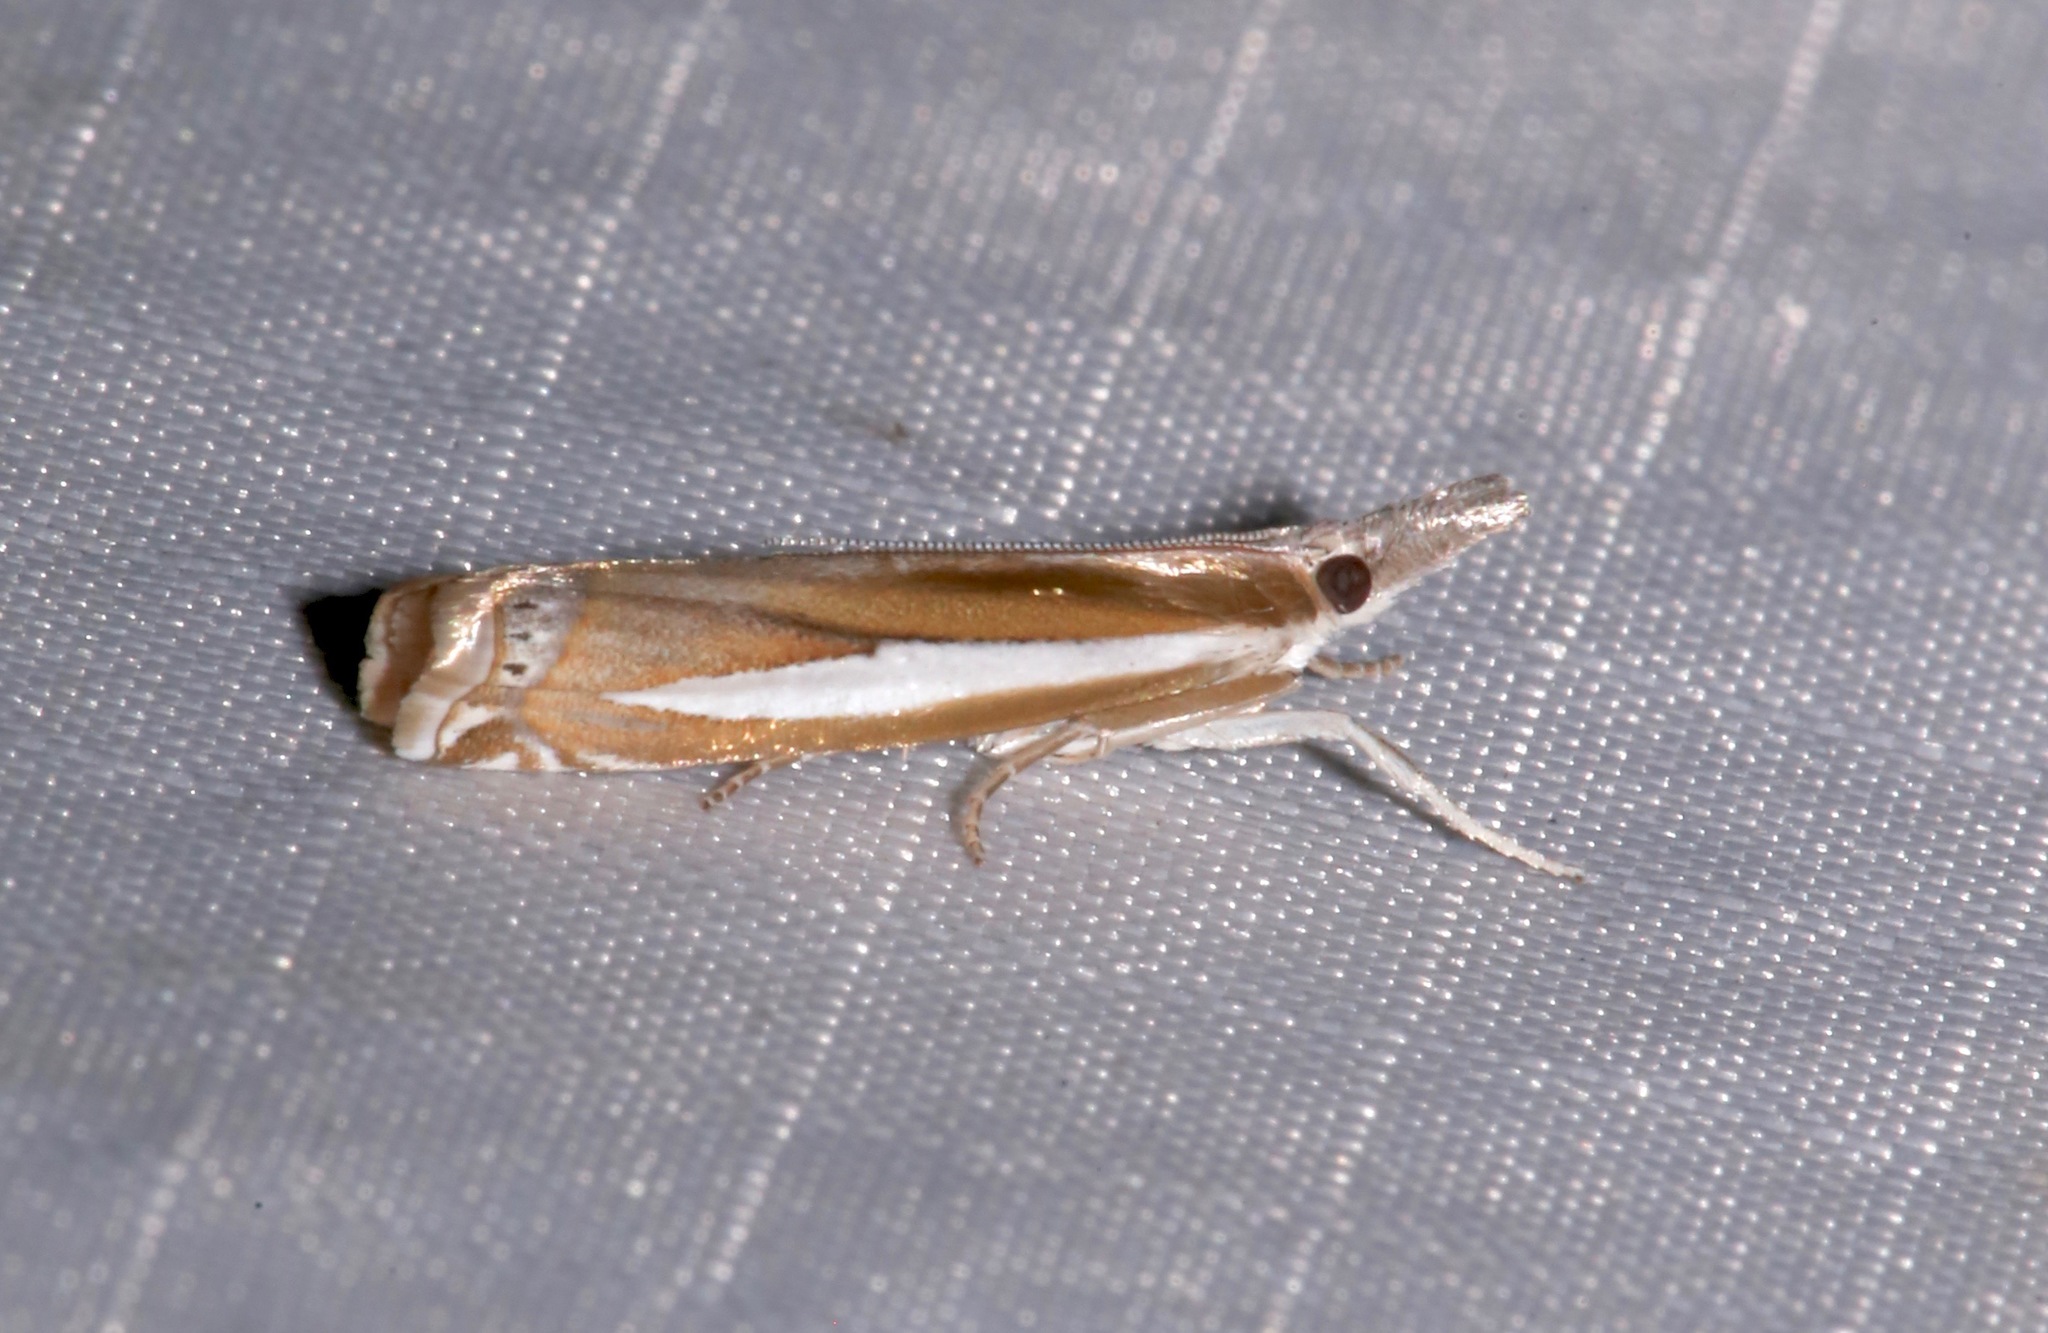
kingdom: Animalia
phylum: Arthropoda
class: Insecta
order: Lepidoptera
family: Crambidae
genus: Crambus
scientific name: Crambus praefectellus
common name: Common grass-veneer
